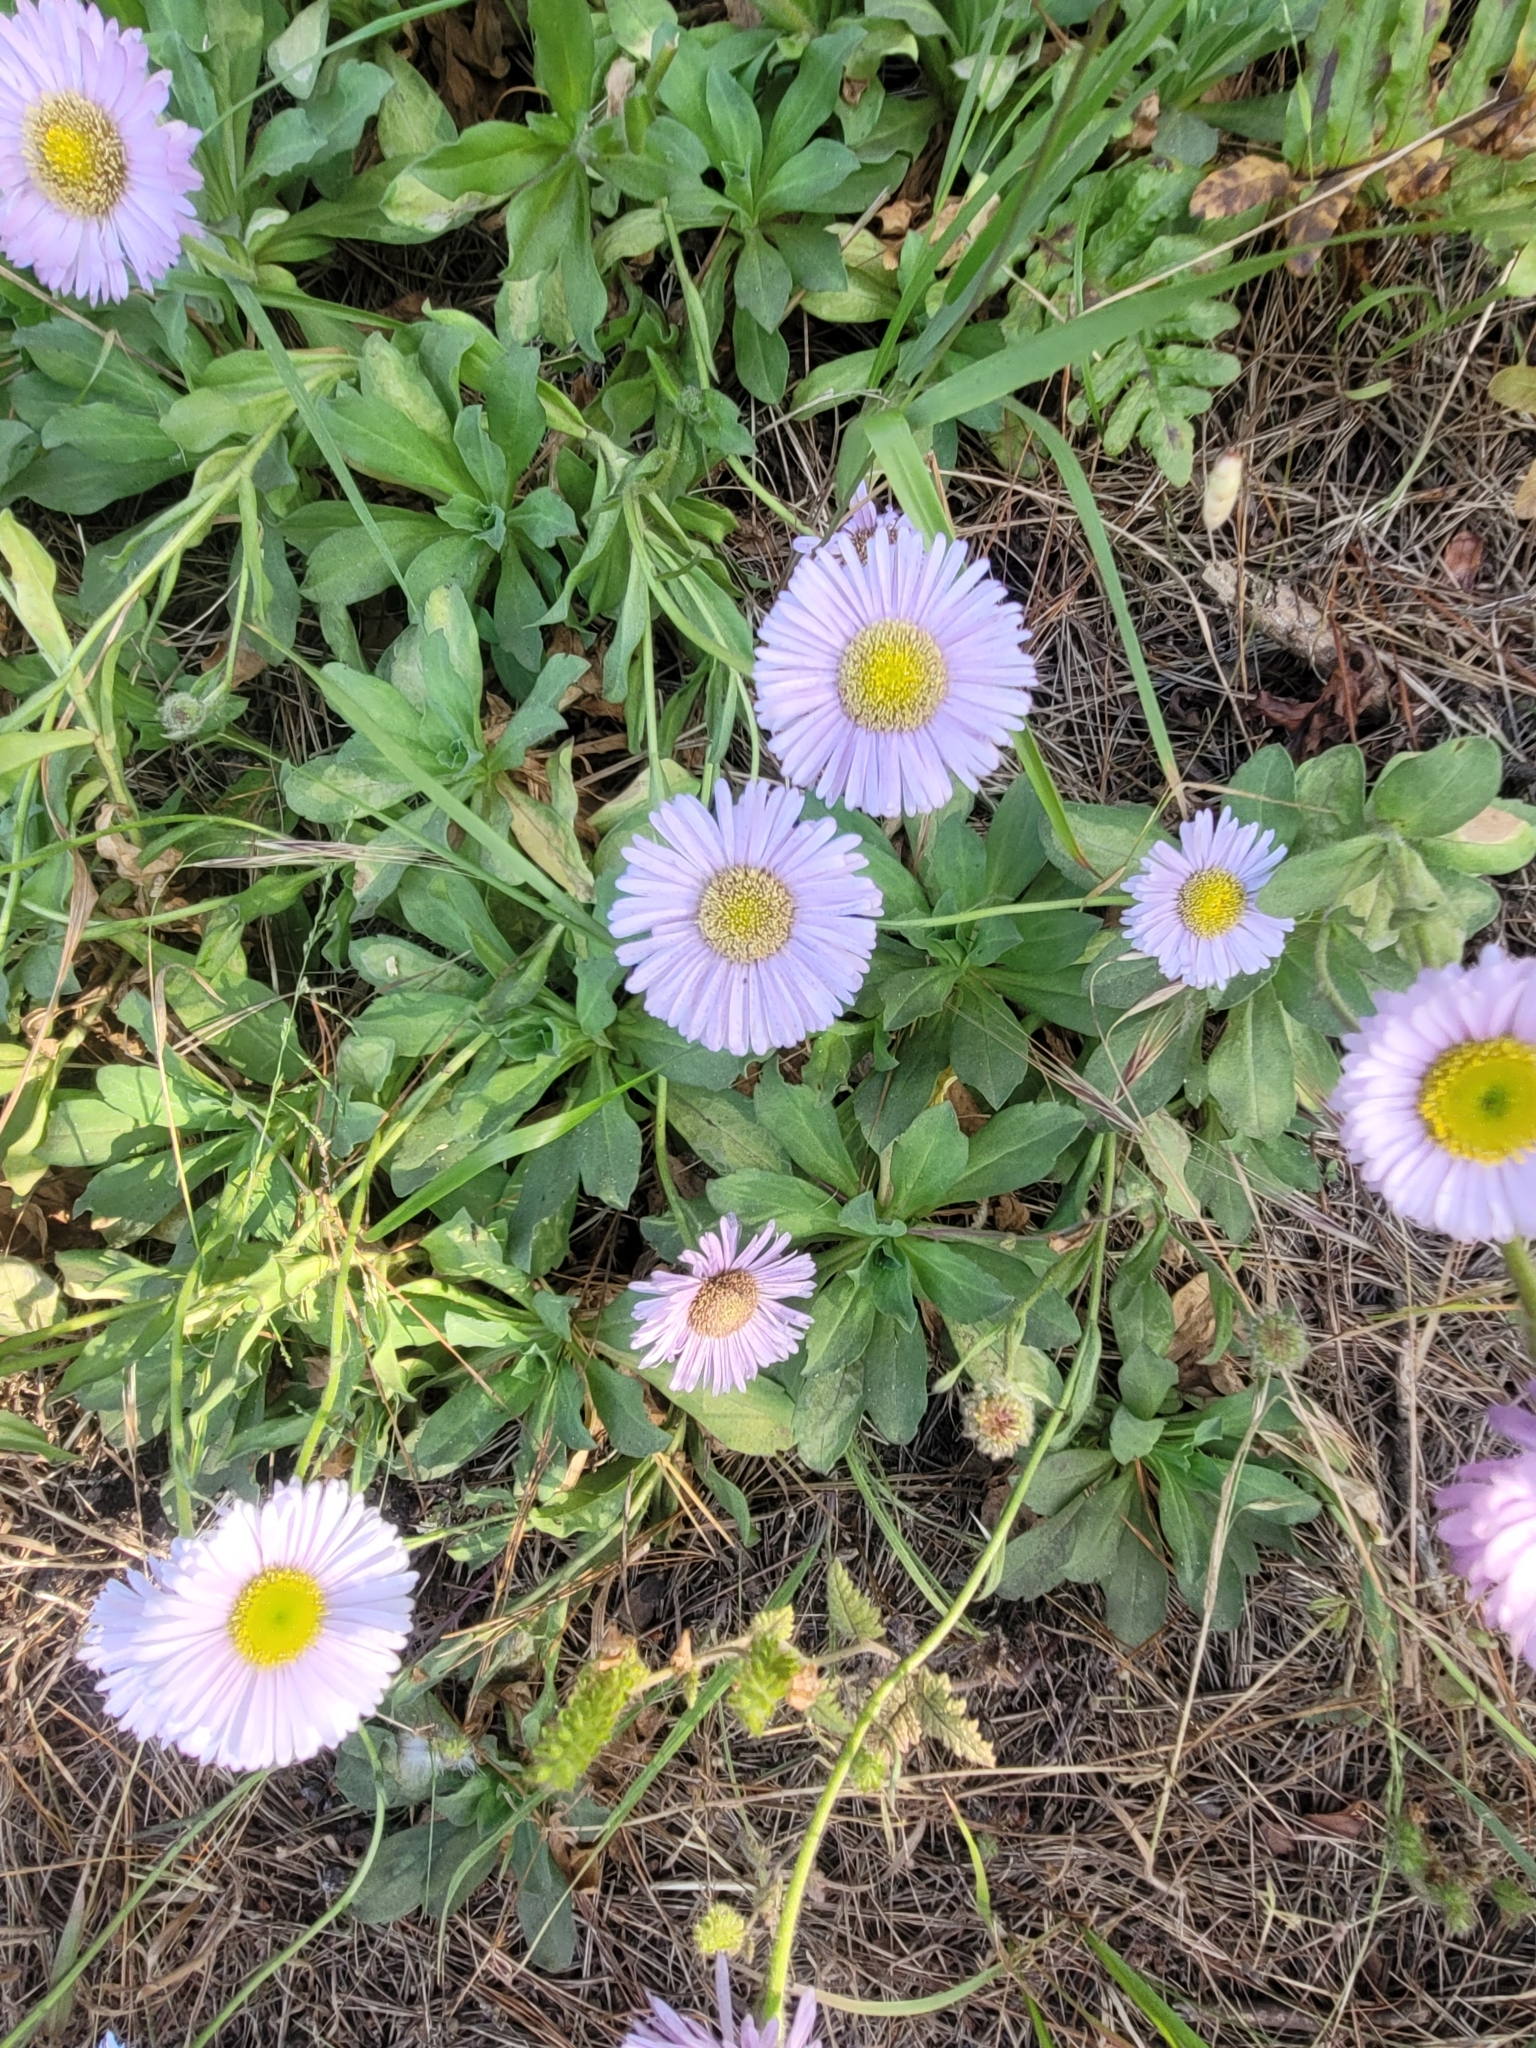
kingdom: Plantae
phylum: Tracheophyta
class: Magnoliopsida
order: Asterales
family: Asteraceae
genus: Erigeron
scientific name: Erigeron glaucus
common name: Seaside daisy
